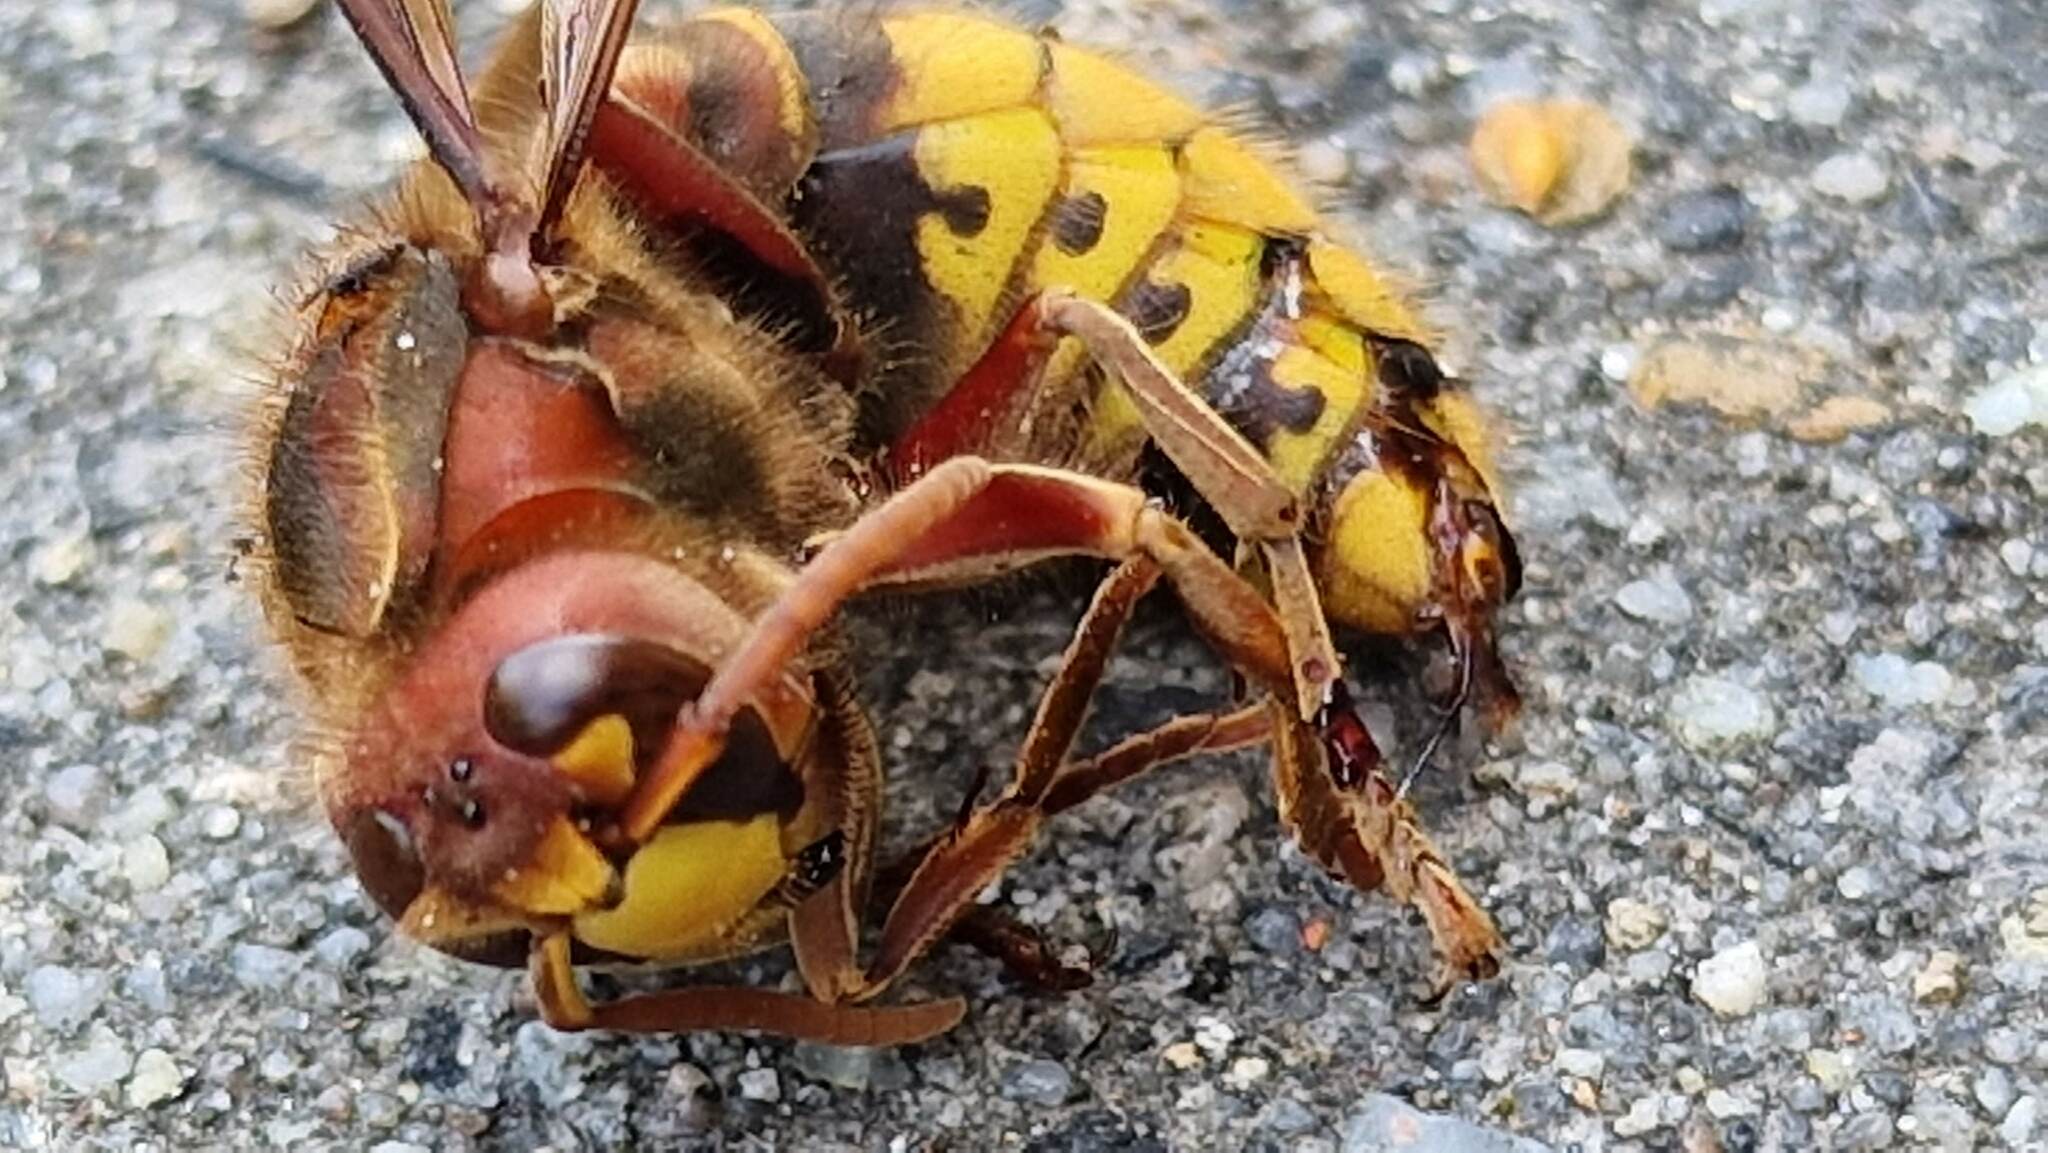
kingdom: Animalia
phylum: Arthropoda
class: Insecta
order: Hymenoptera
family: Vespidae
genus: Vespa
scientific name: Vespa crabro
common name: Hornet
